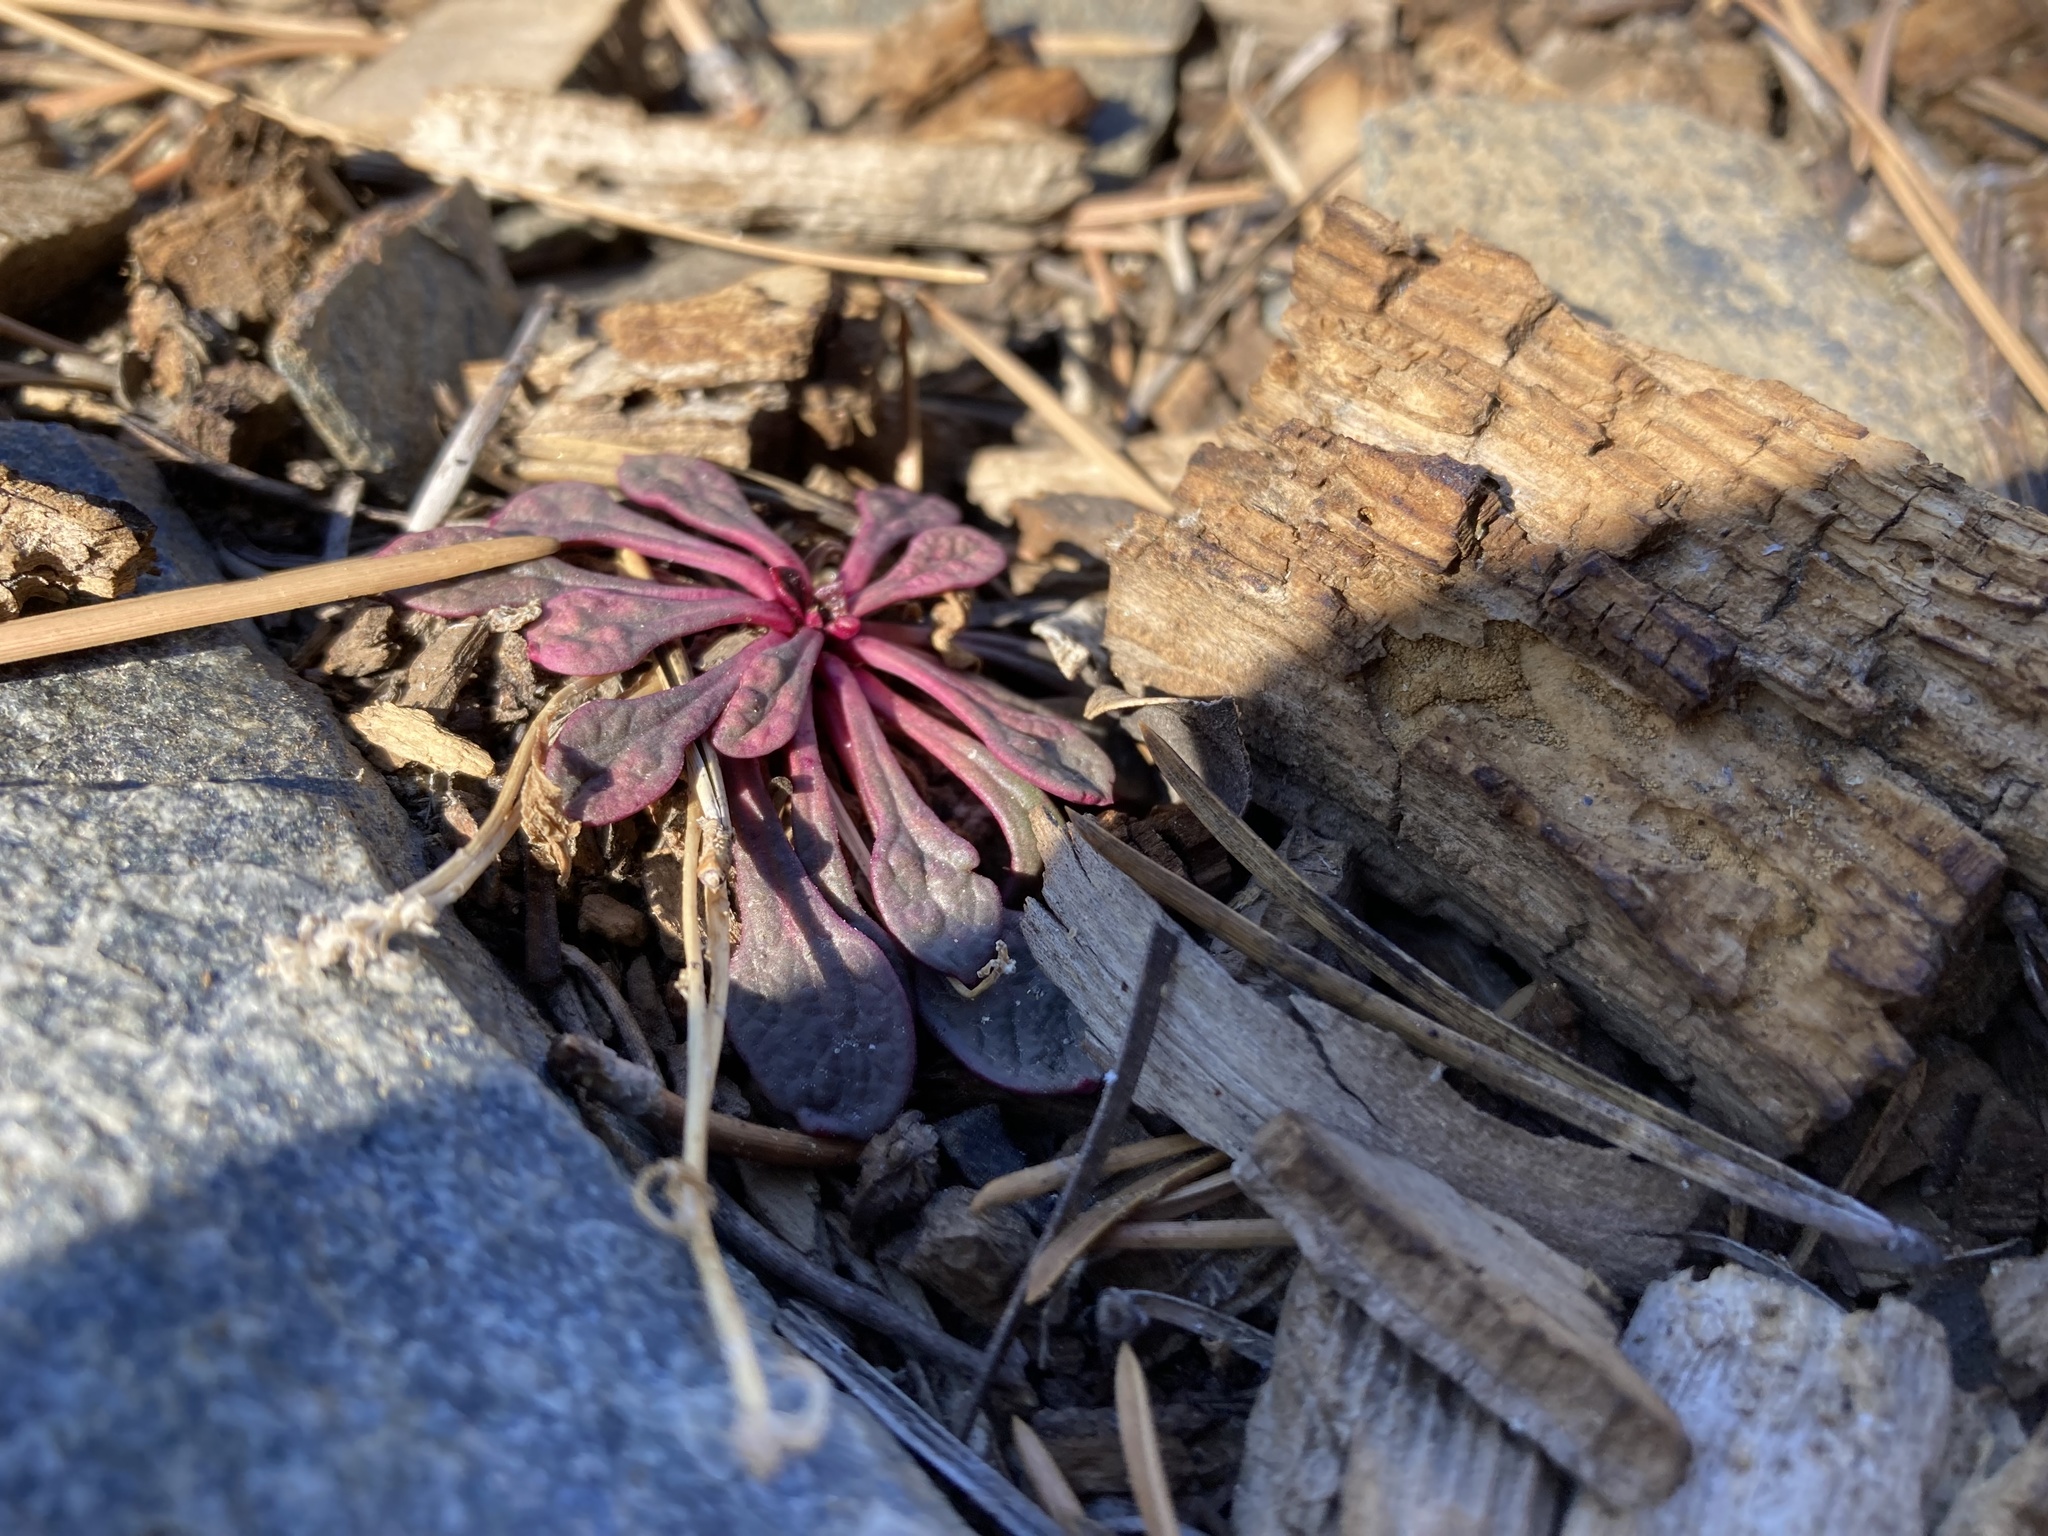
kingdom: Plantae
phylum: Tracheophyta
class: Magnoliopsida
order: Caryophyllales
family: Montiaceae
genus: Calyptridium
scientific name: Calyptridium monospermum
